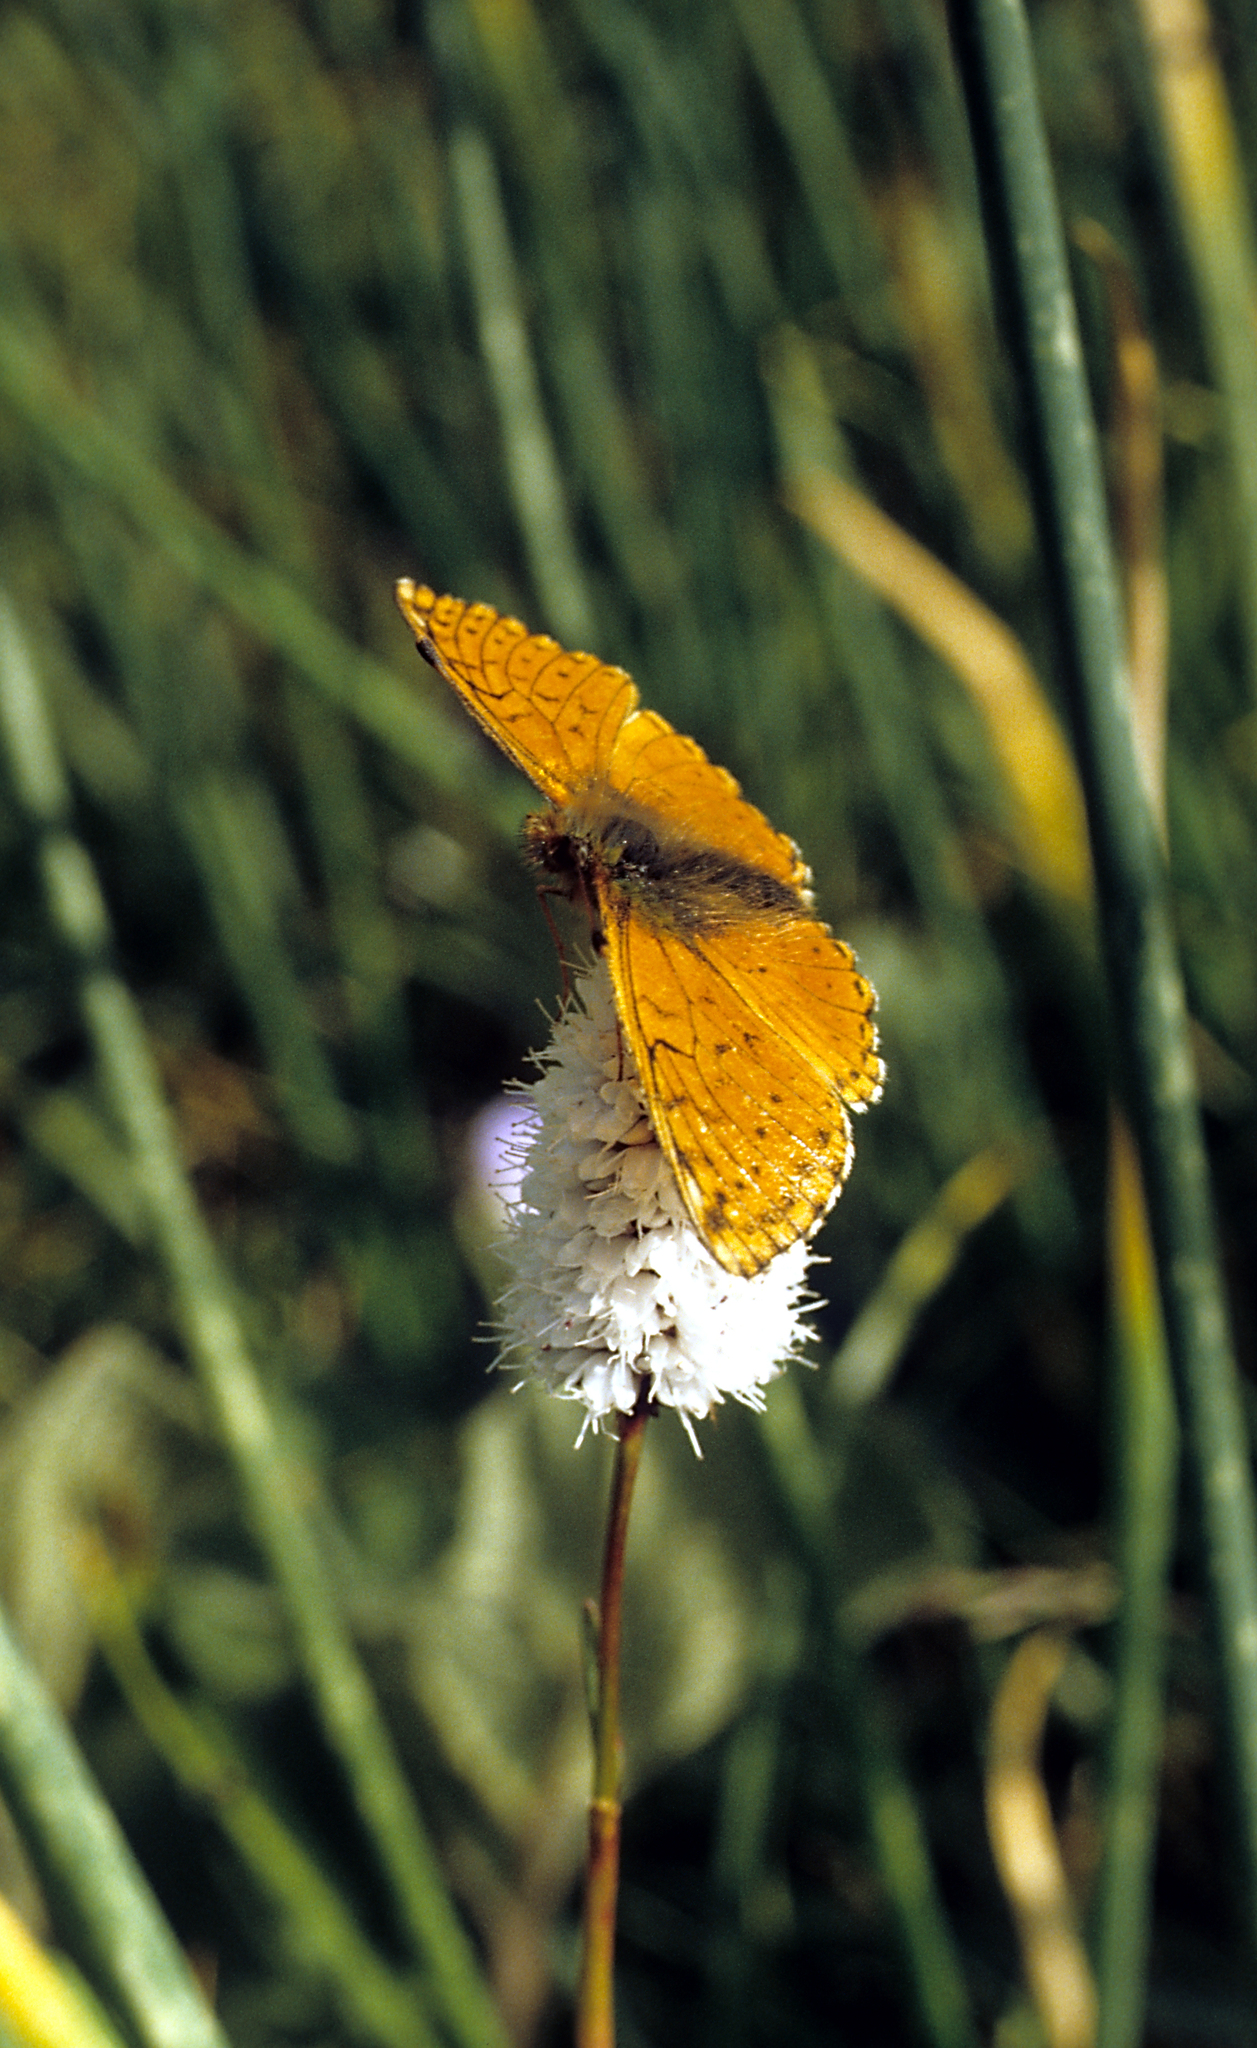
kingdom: Animalia
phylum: Arthropoda
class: Insecta
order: Lepidoptera
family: Nymphalidae
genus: Boloria
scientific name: Boloria sipora
